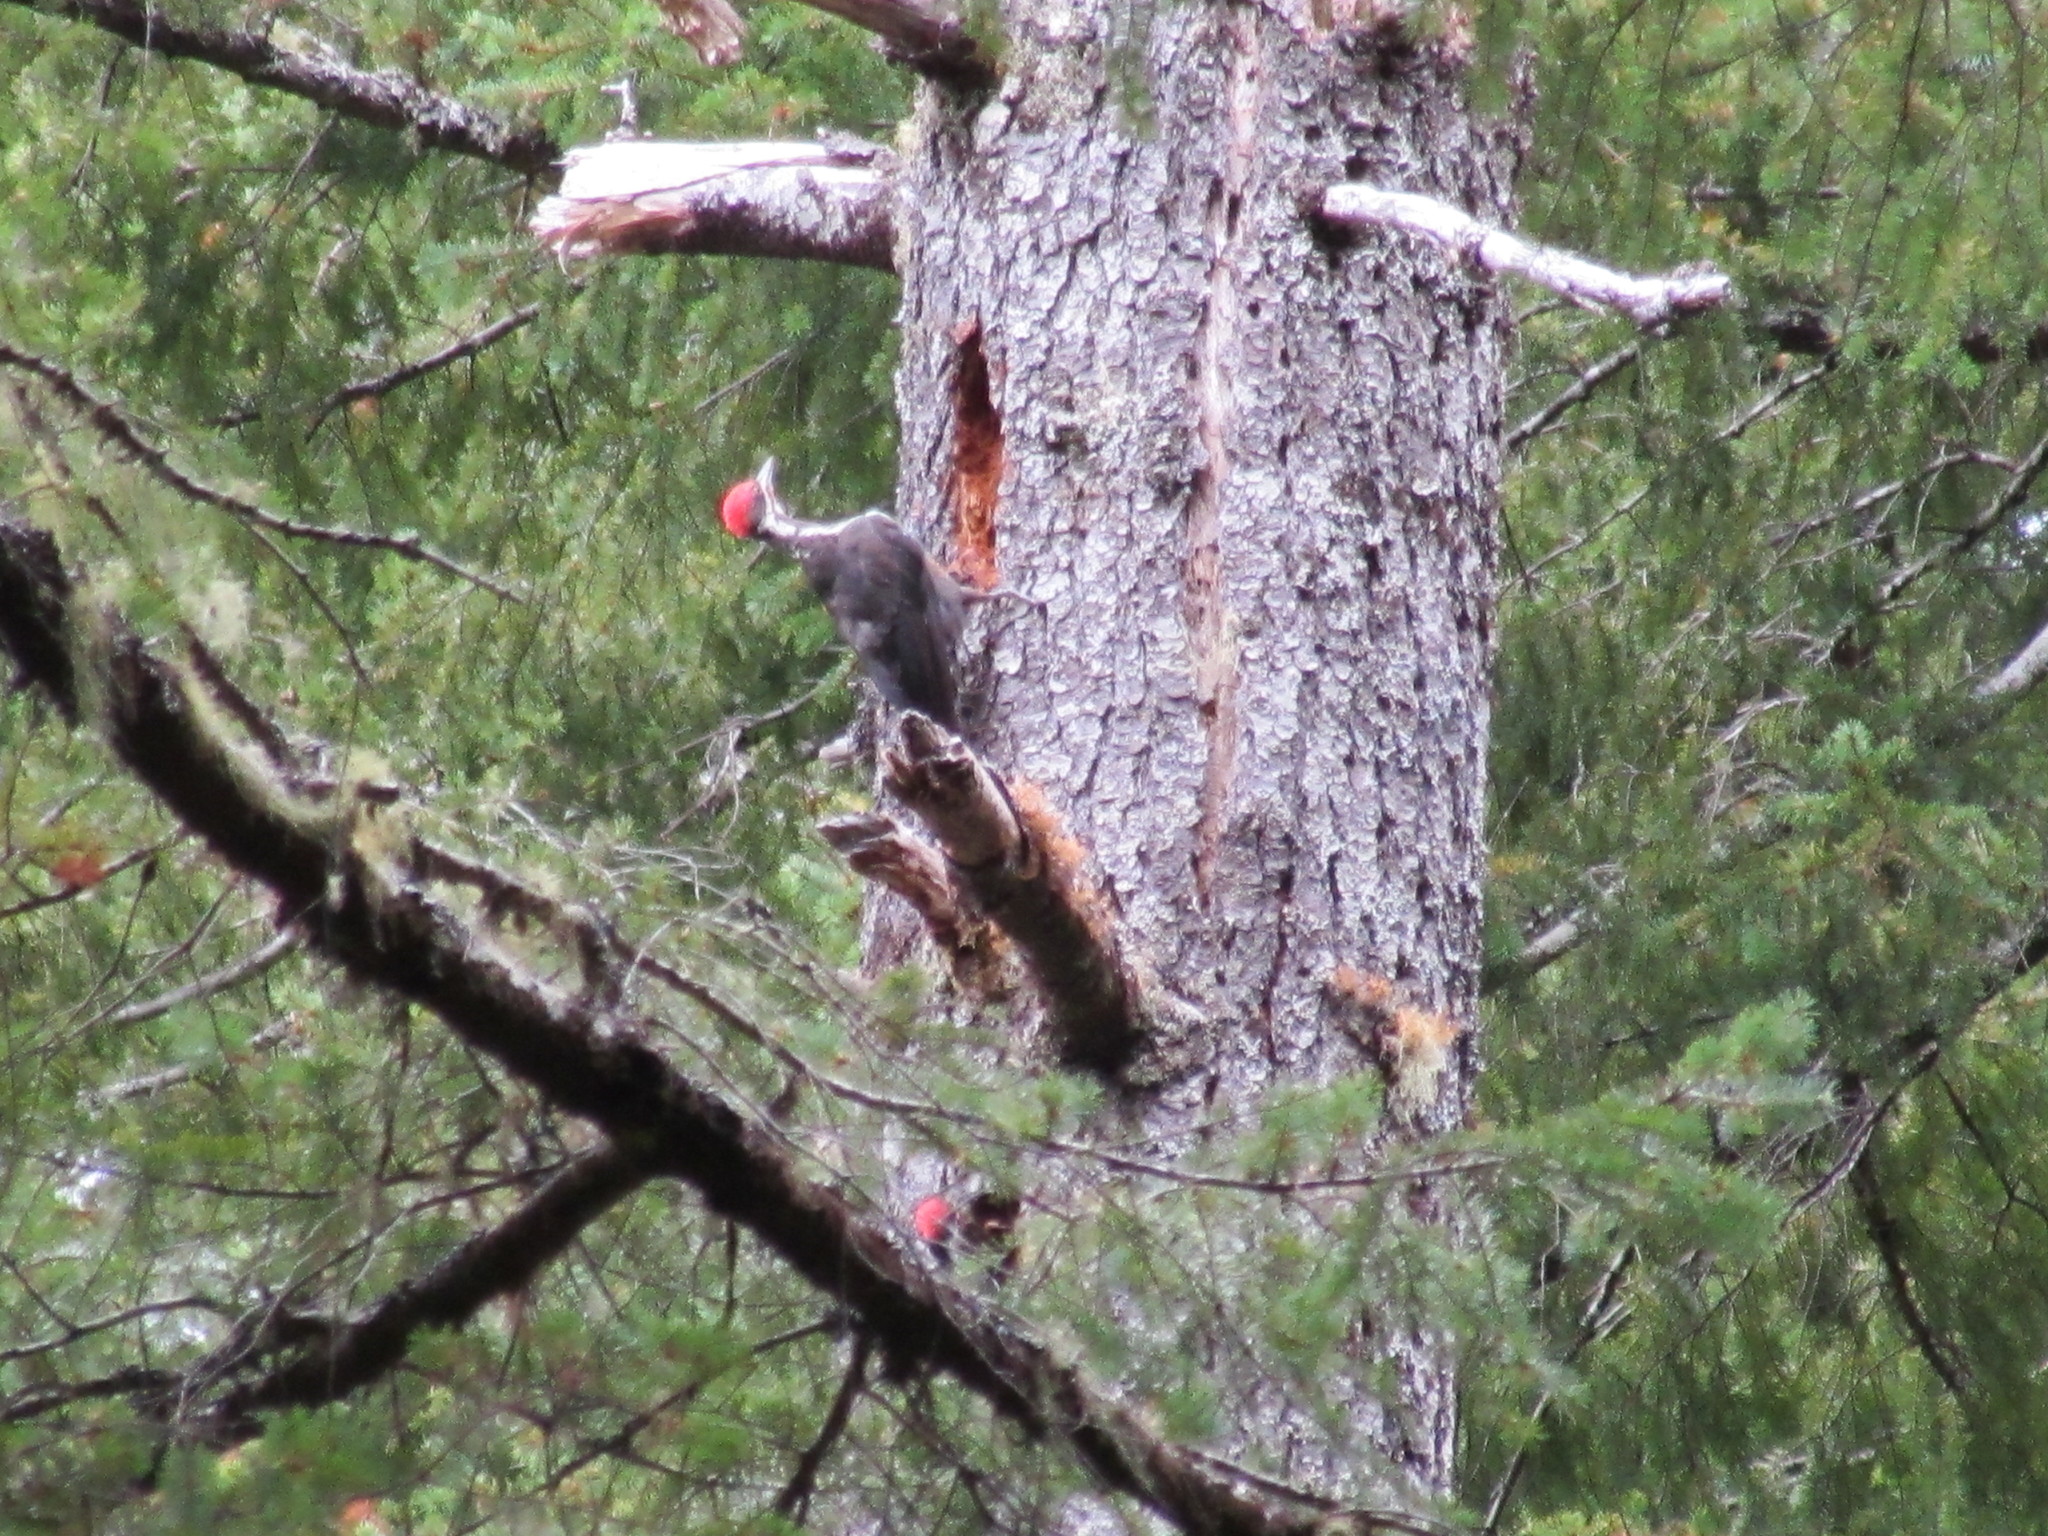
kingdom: Animalia
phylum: Chordata
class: Aves
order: Piciformes
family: Picidae
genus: Dryocopus
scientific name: Dryocopus pileatus
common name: Pileated woodpecker
